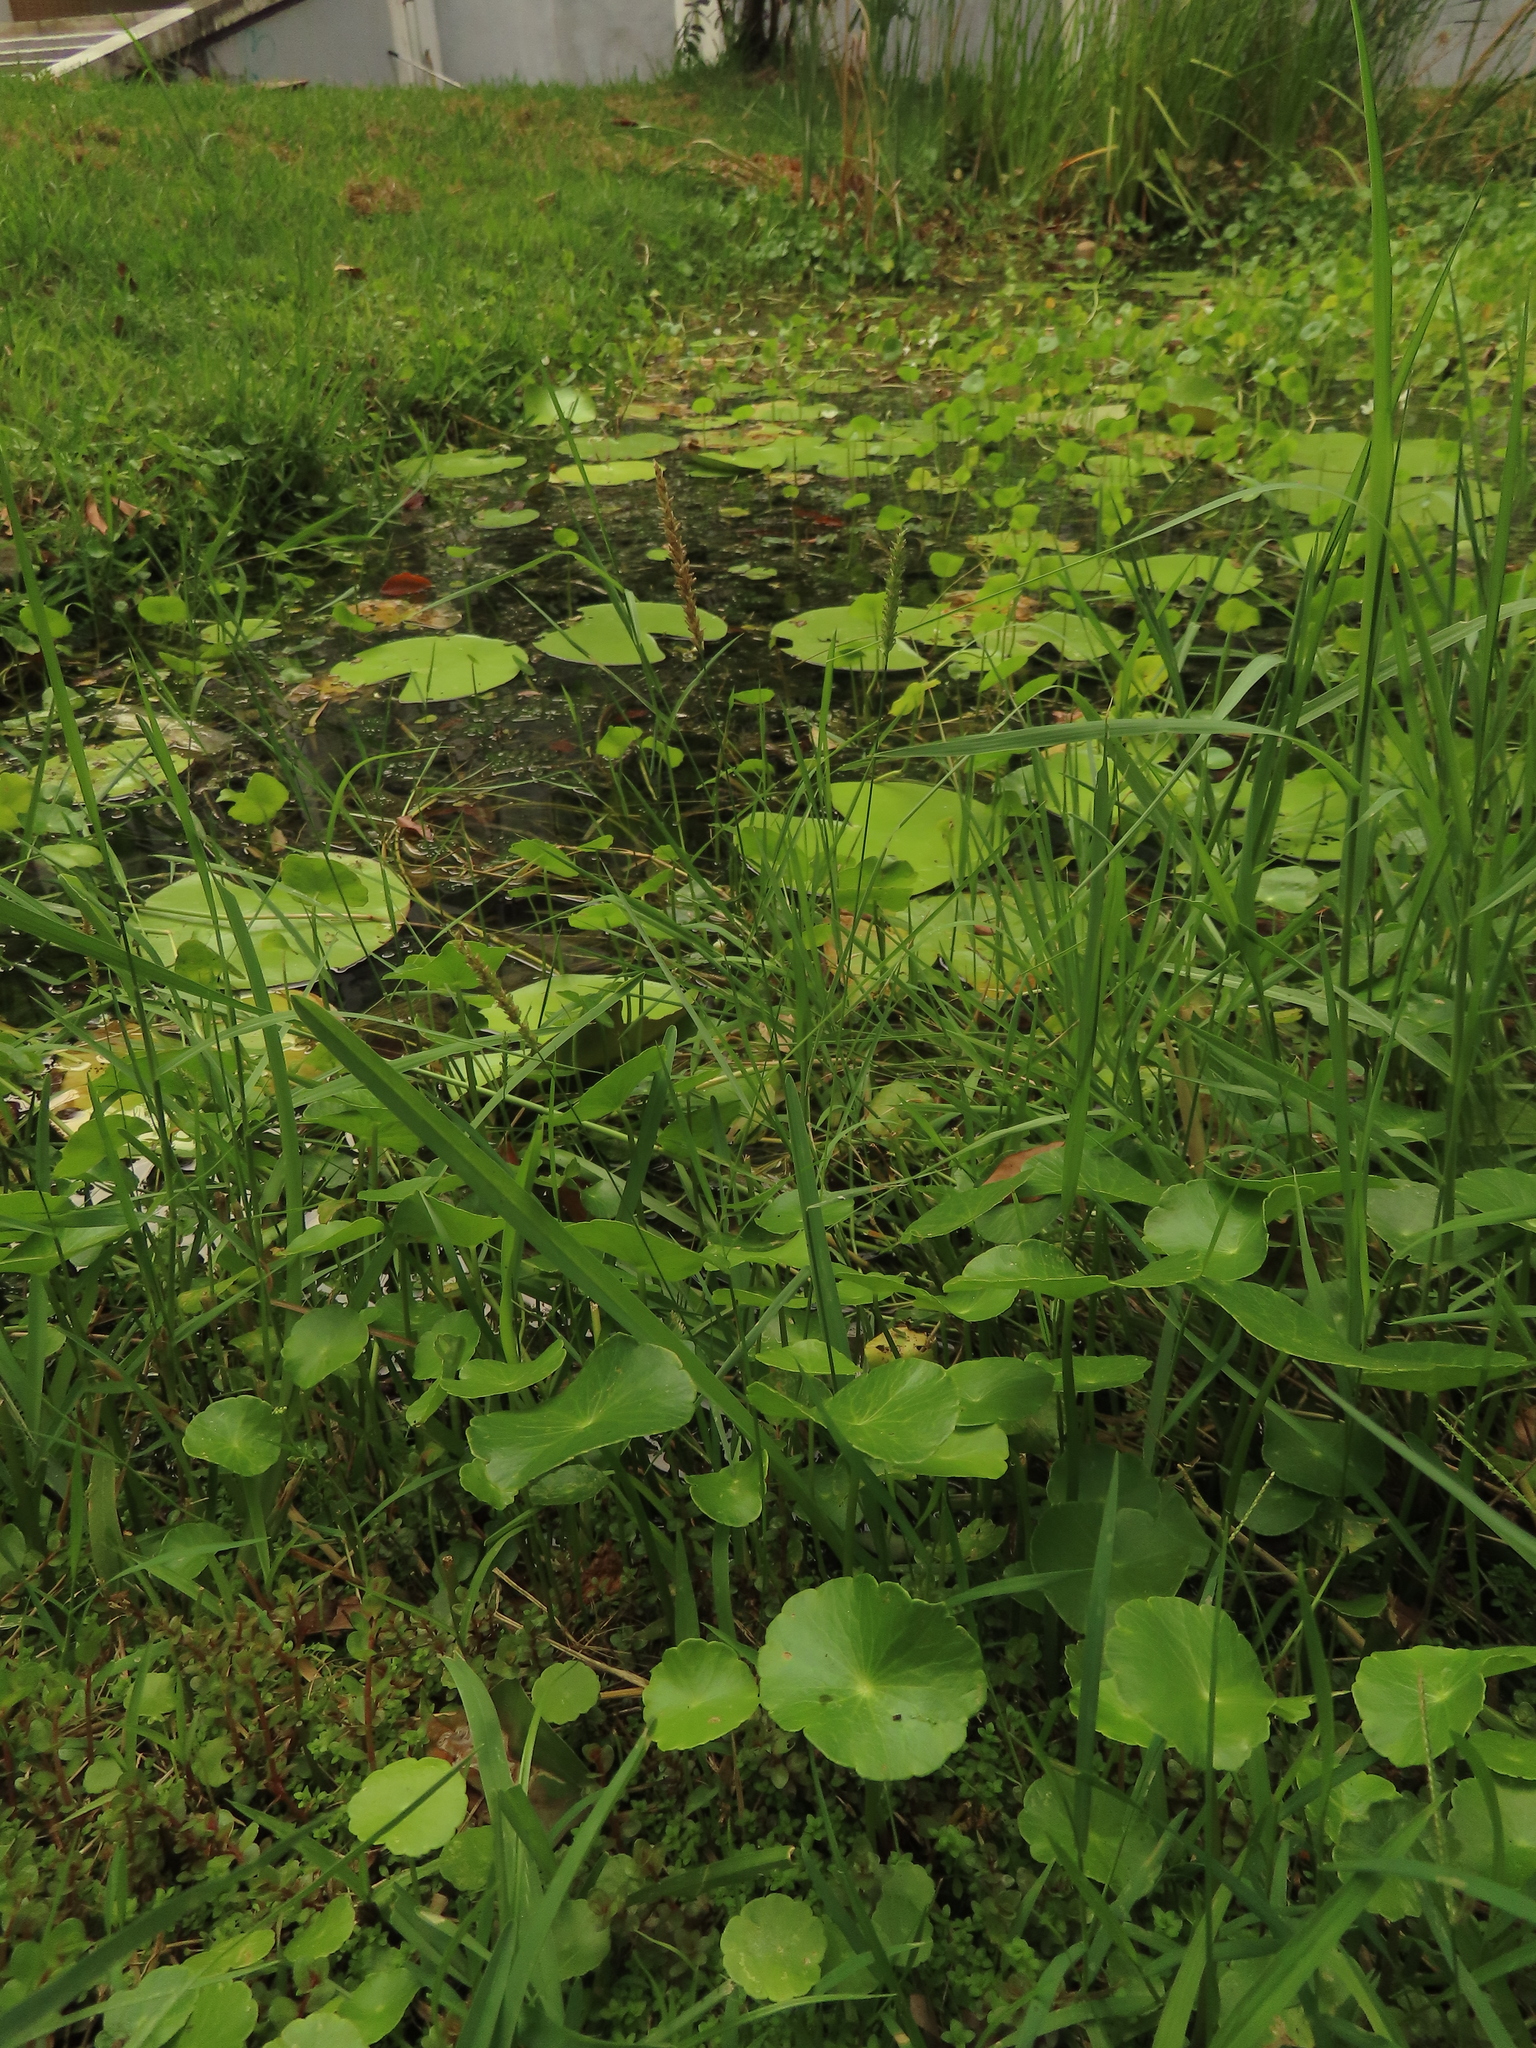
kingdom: Plantae
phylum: Tracheophyta
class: Liliopsida
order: Poales
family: Poaceae
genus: Sacciolepis
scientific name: Sacciolepis indica
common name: Glenwoodgrass
